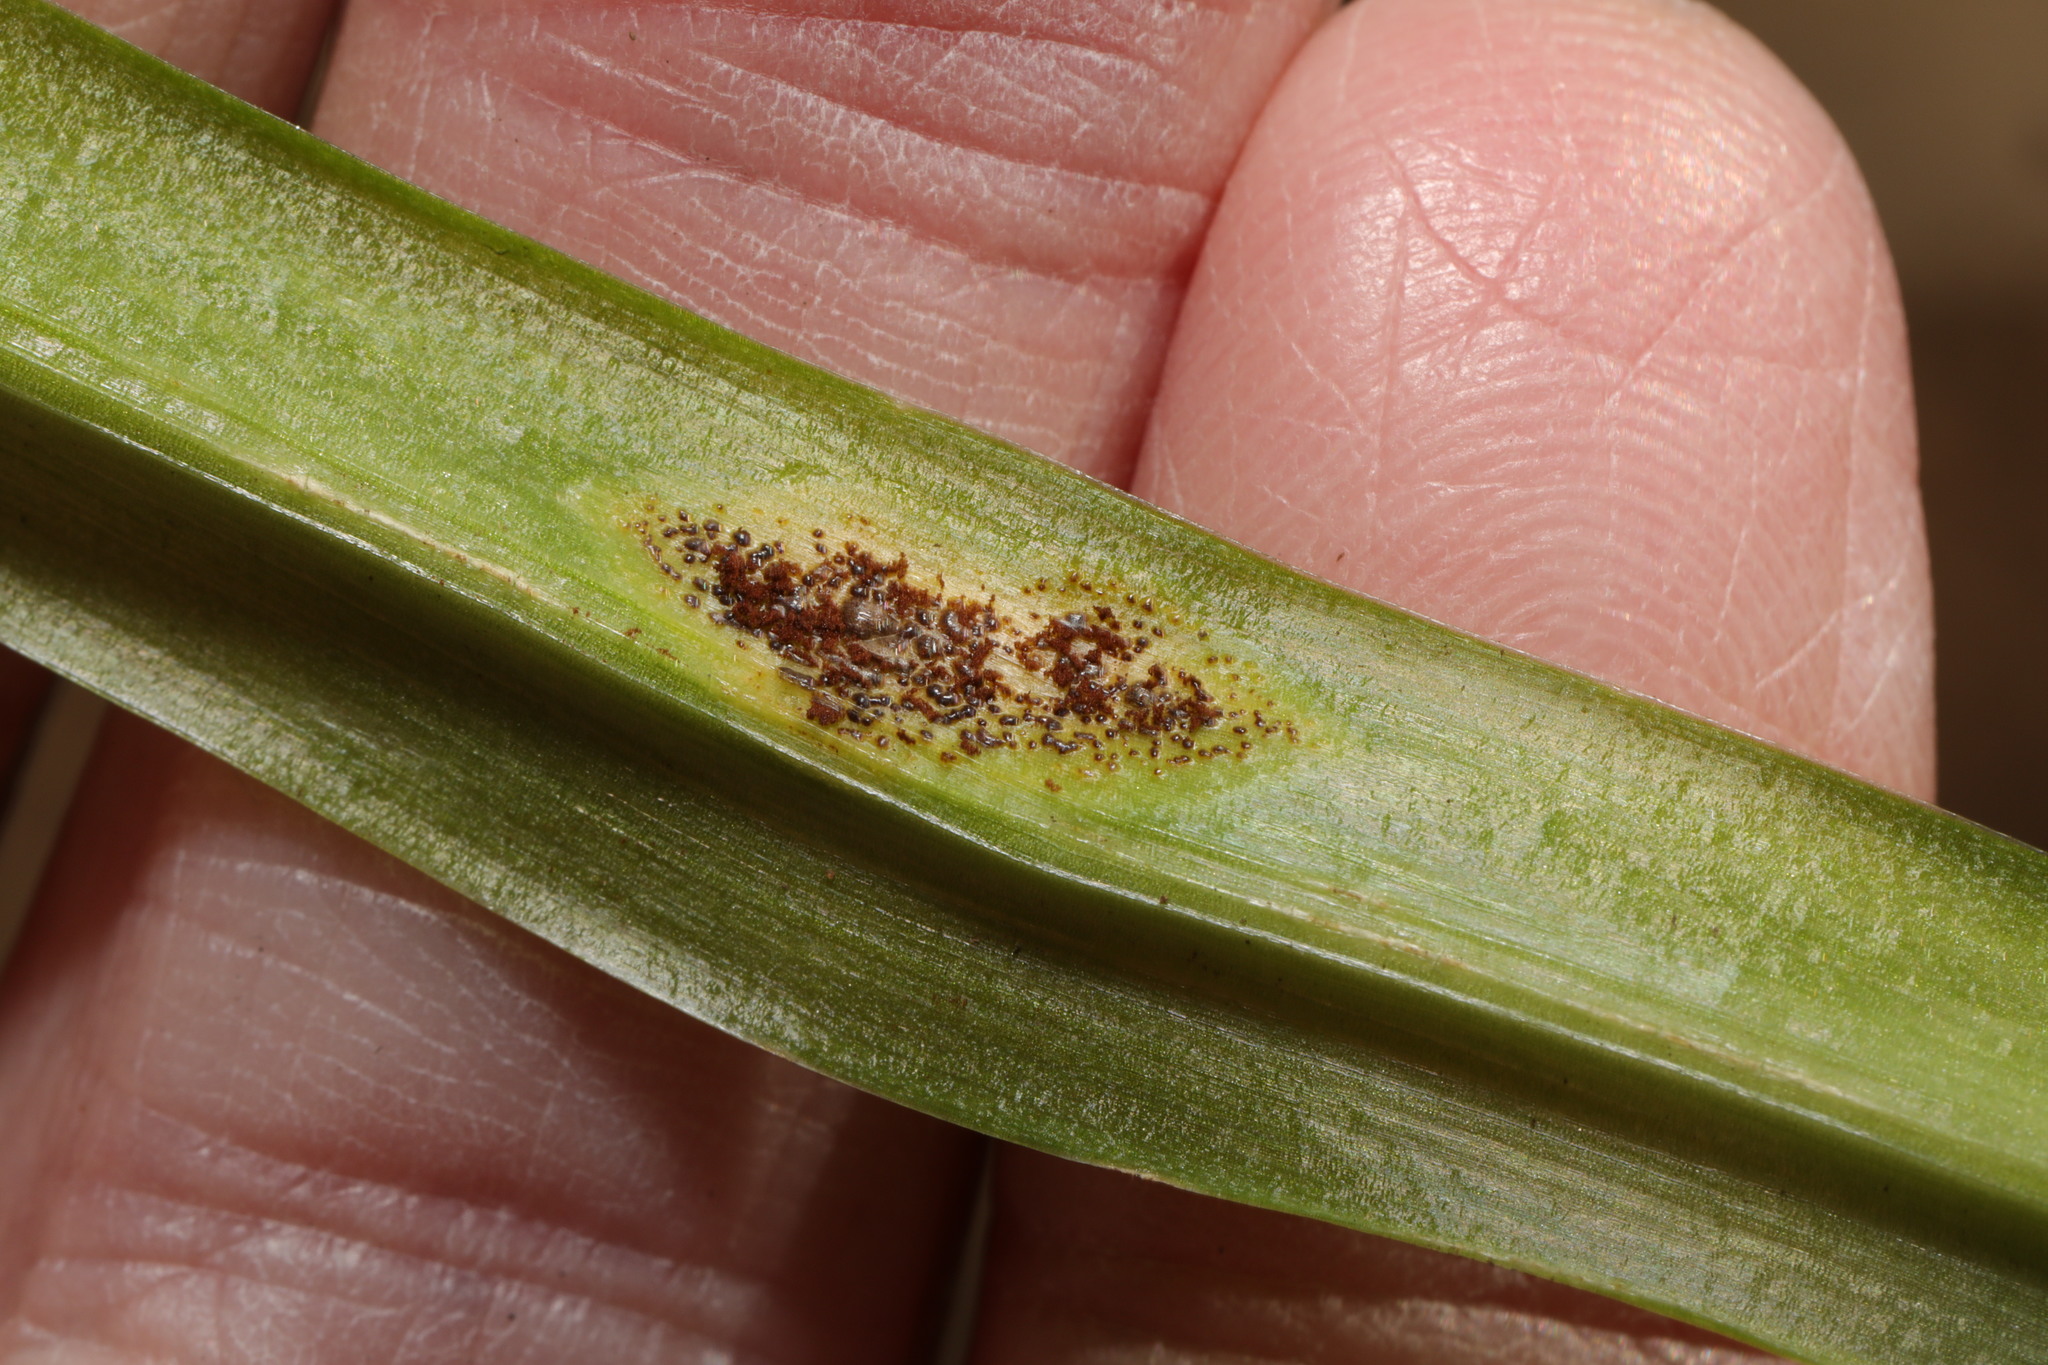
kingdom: Fungi
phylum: Basidiomycota
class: Pucciniomycetes
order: Pucciniales
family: Pucciniaceae
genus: Uromyces
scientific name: Uromyces hyacinthi
